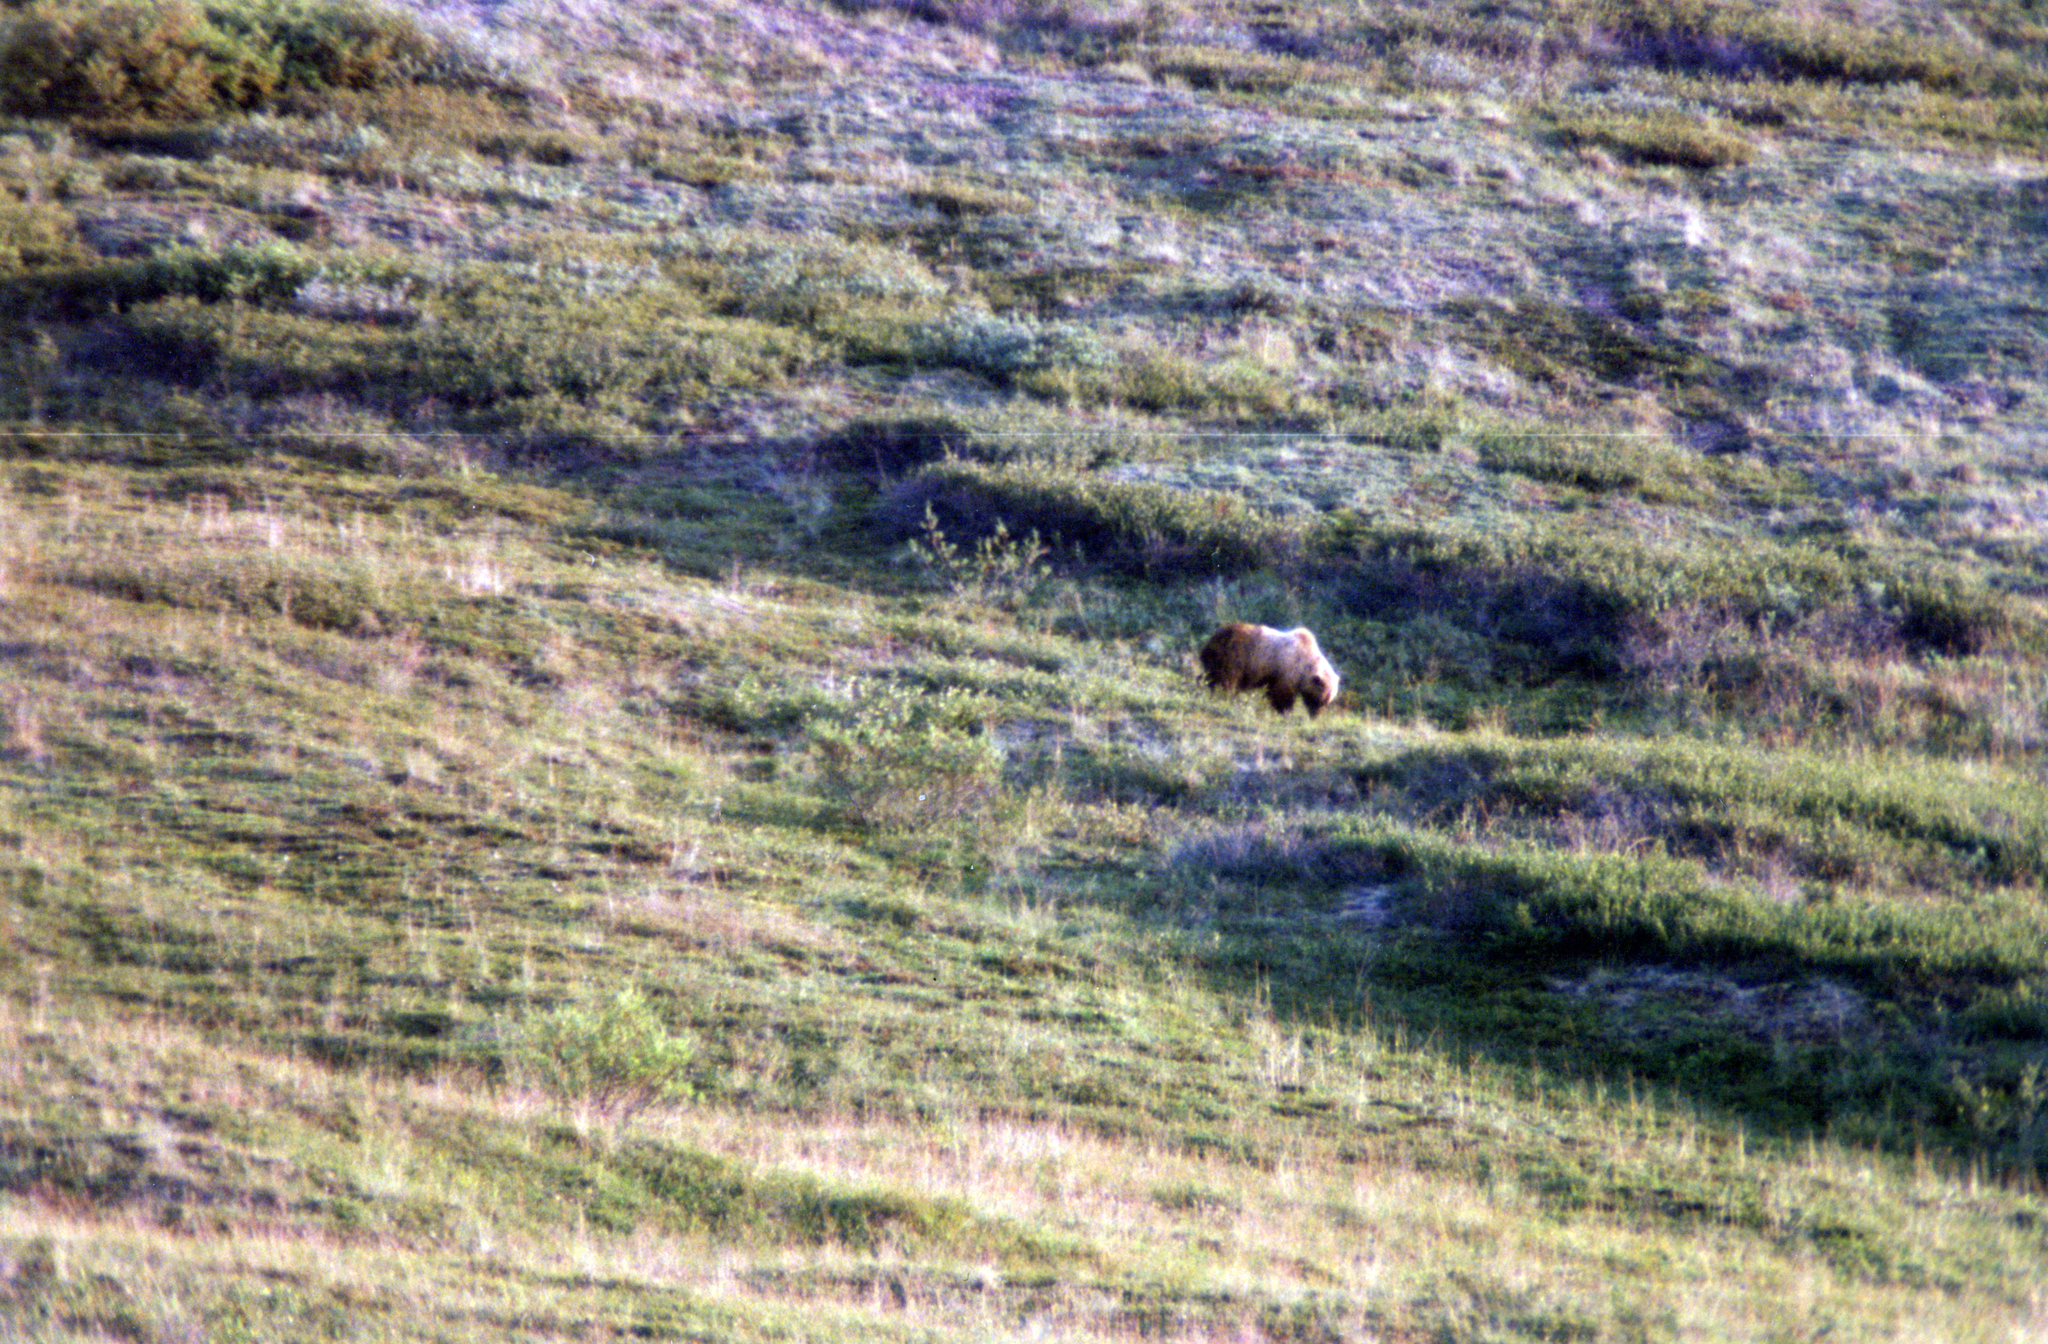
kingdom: Animalia
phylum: Chordata
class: Mammalia
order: Carnivora
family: Ursidae
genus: Ursus
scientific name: Ursus arctos
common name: Brown bear
